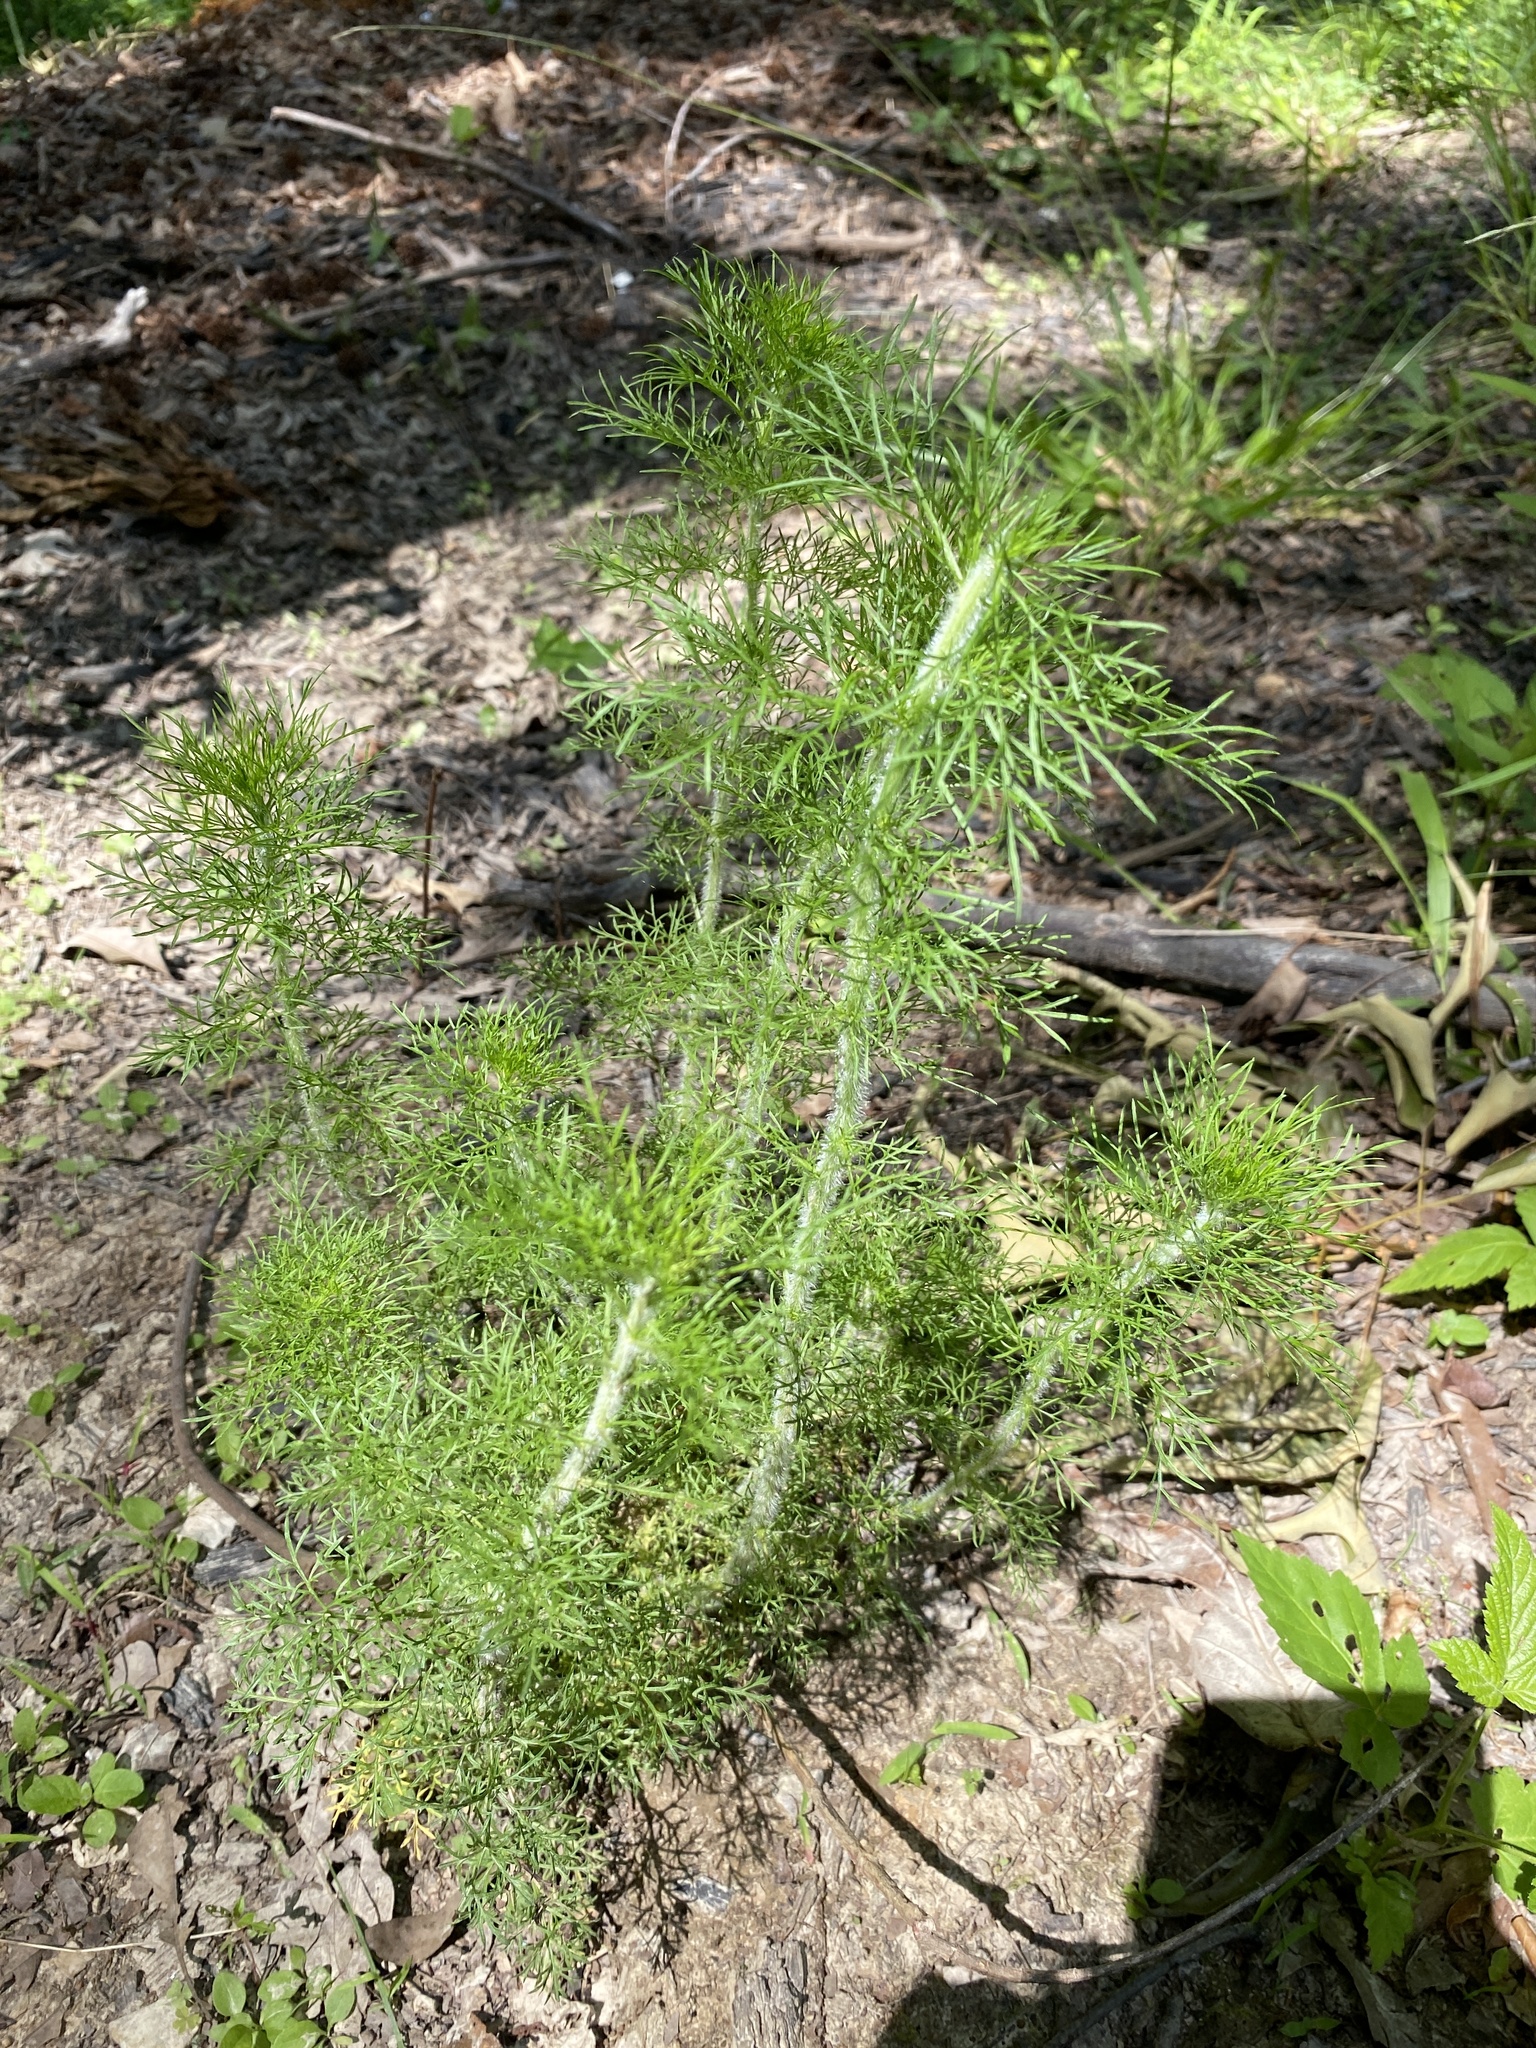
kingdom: Plantae
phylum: Tracheophyta
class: Magnoliopsida
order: Asterales
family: Asteraceae
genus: Eupatorium
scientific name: Eupatorium capillifolium
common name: Dog-fennel
